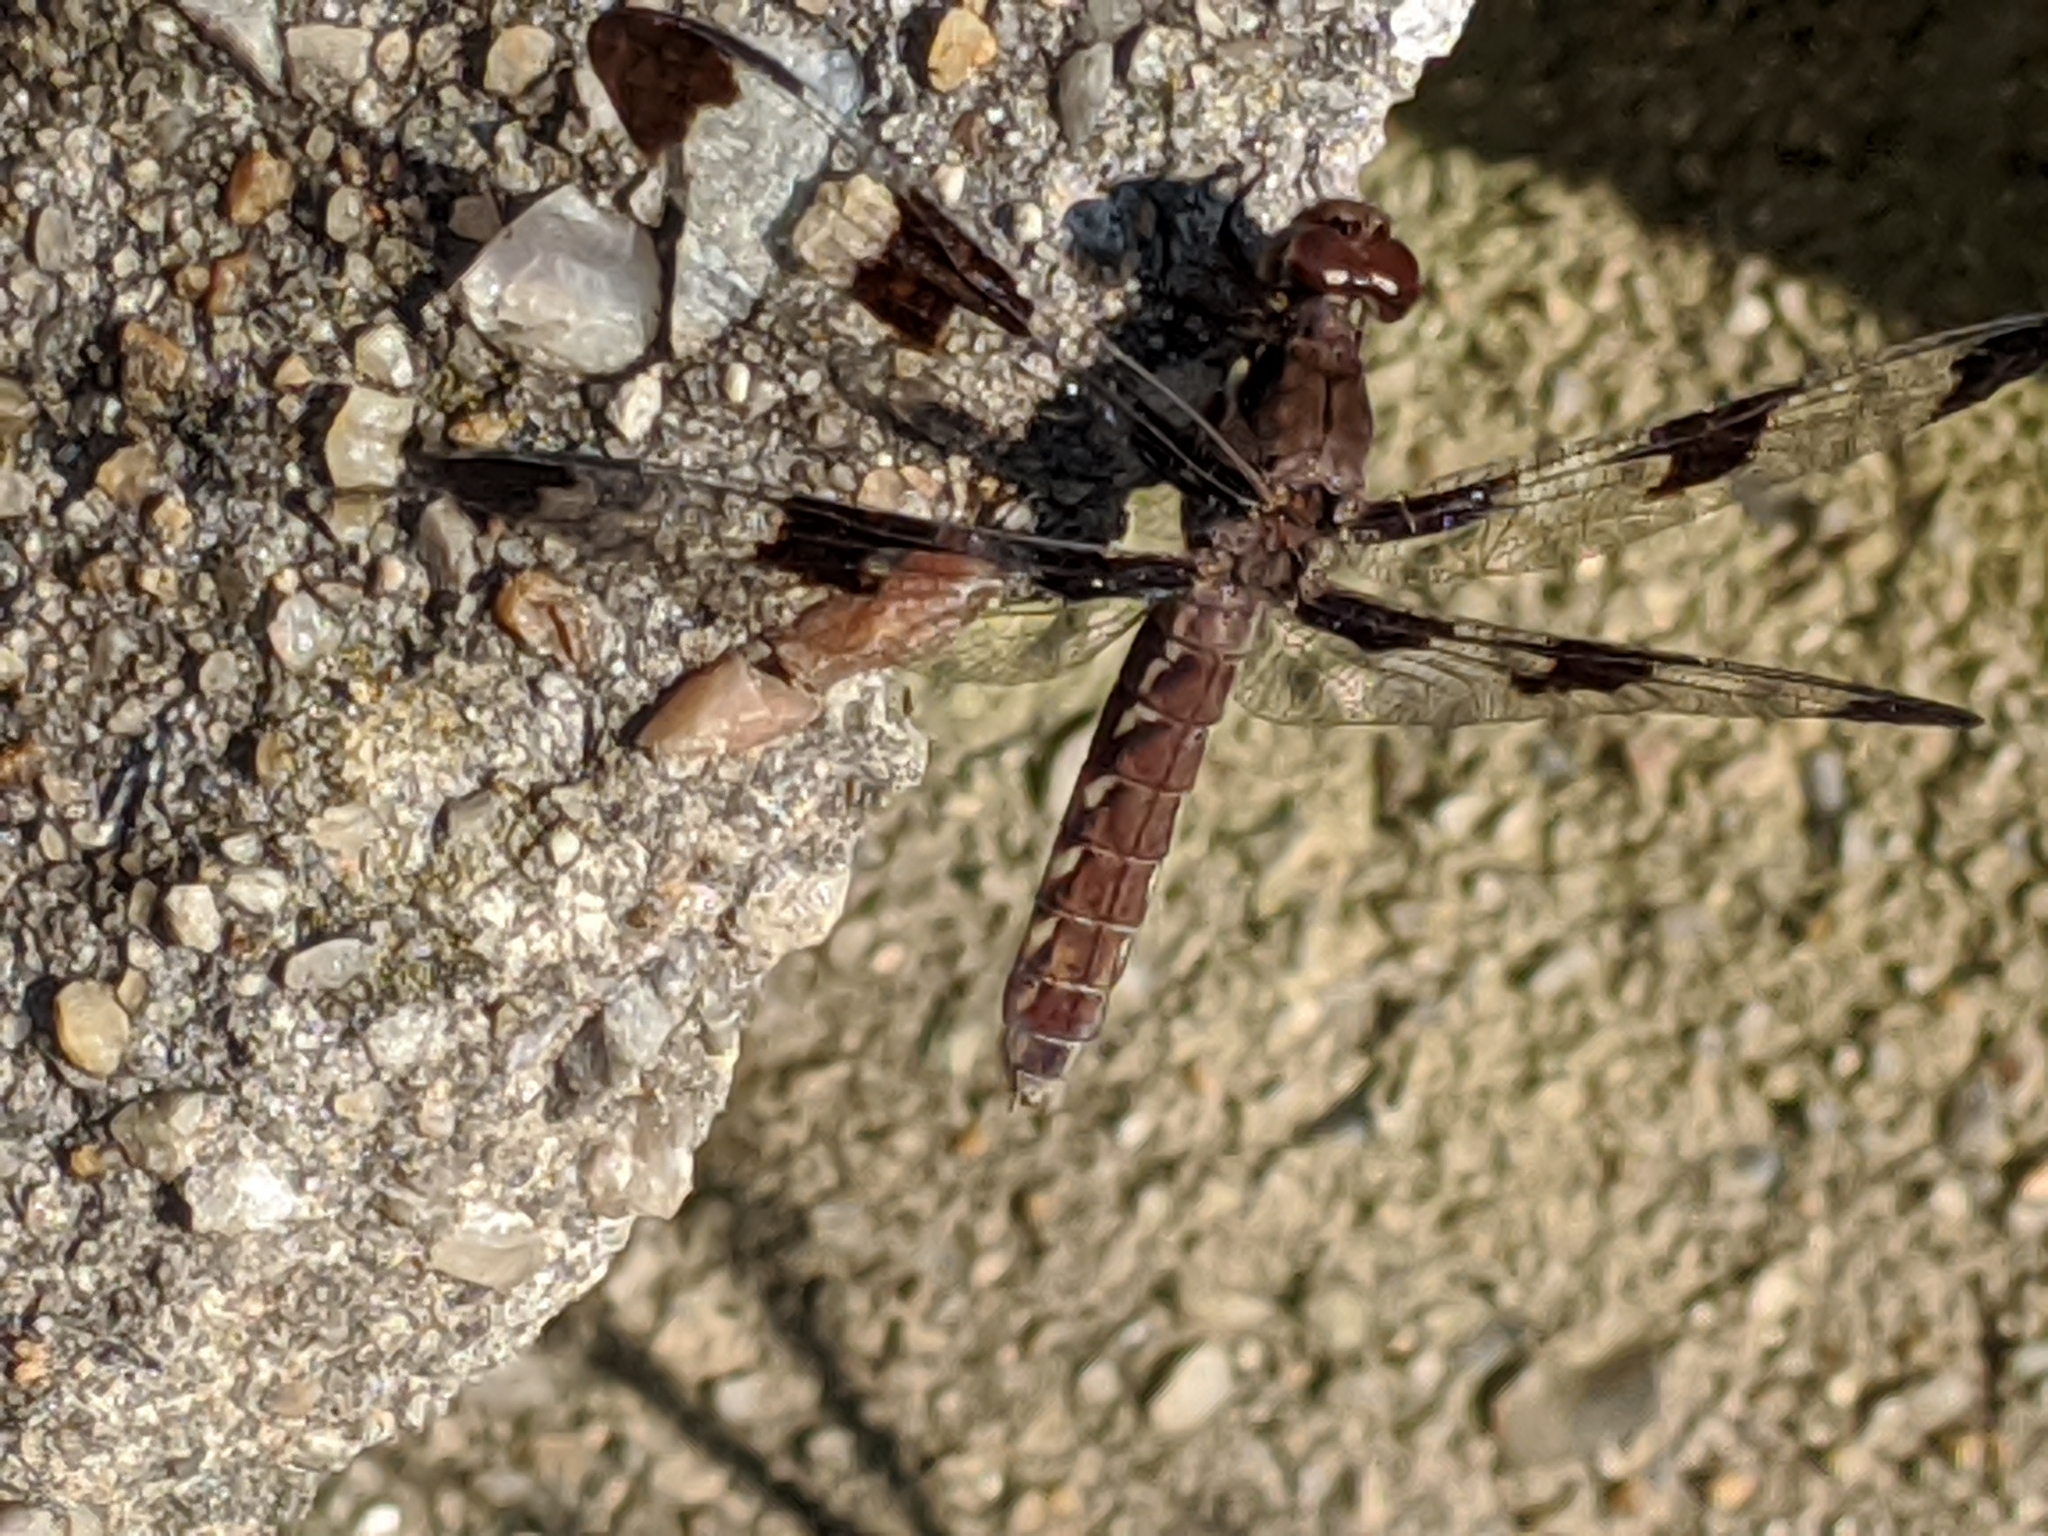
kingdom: Animalia
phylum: Arthropoda
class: Insecta
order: Odonata
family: Libellulidae
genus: Plathemis
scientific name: Plathemis lydia
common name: Common whitetail
